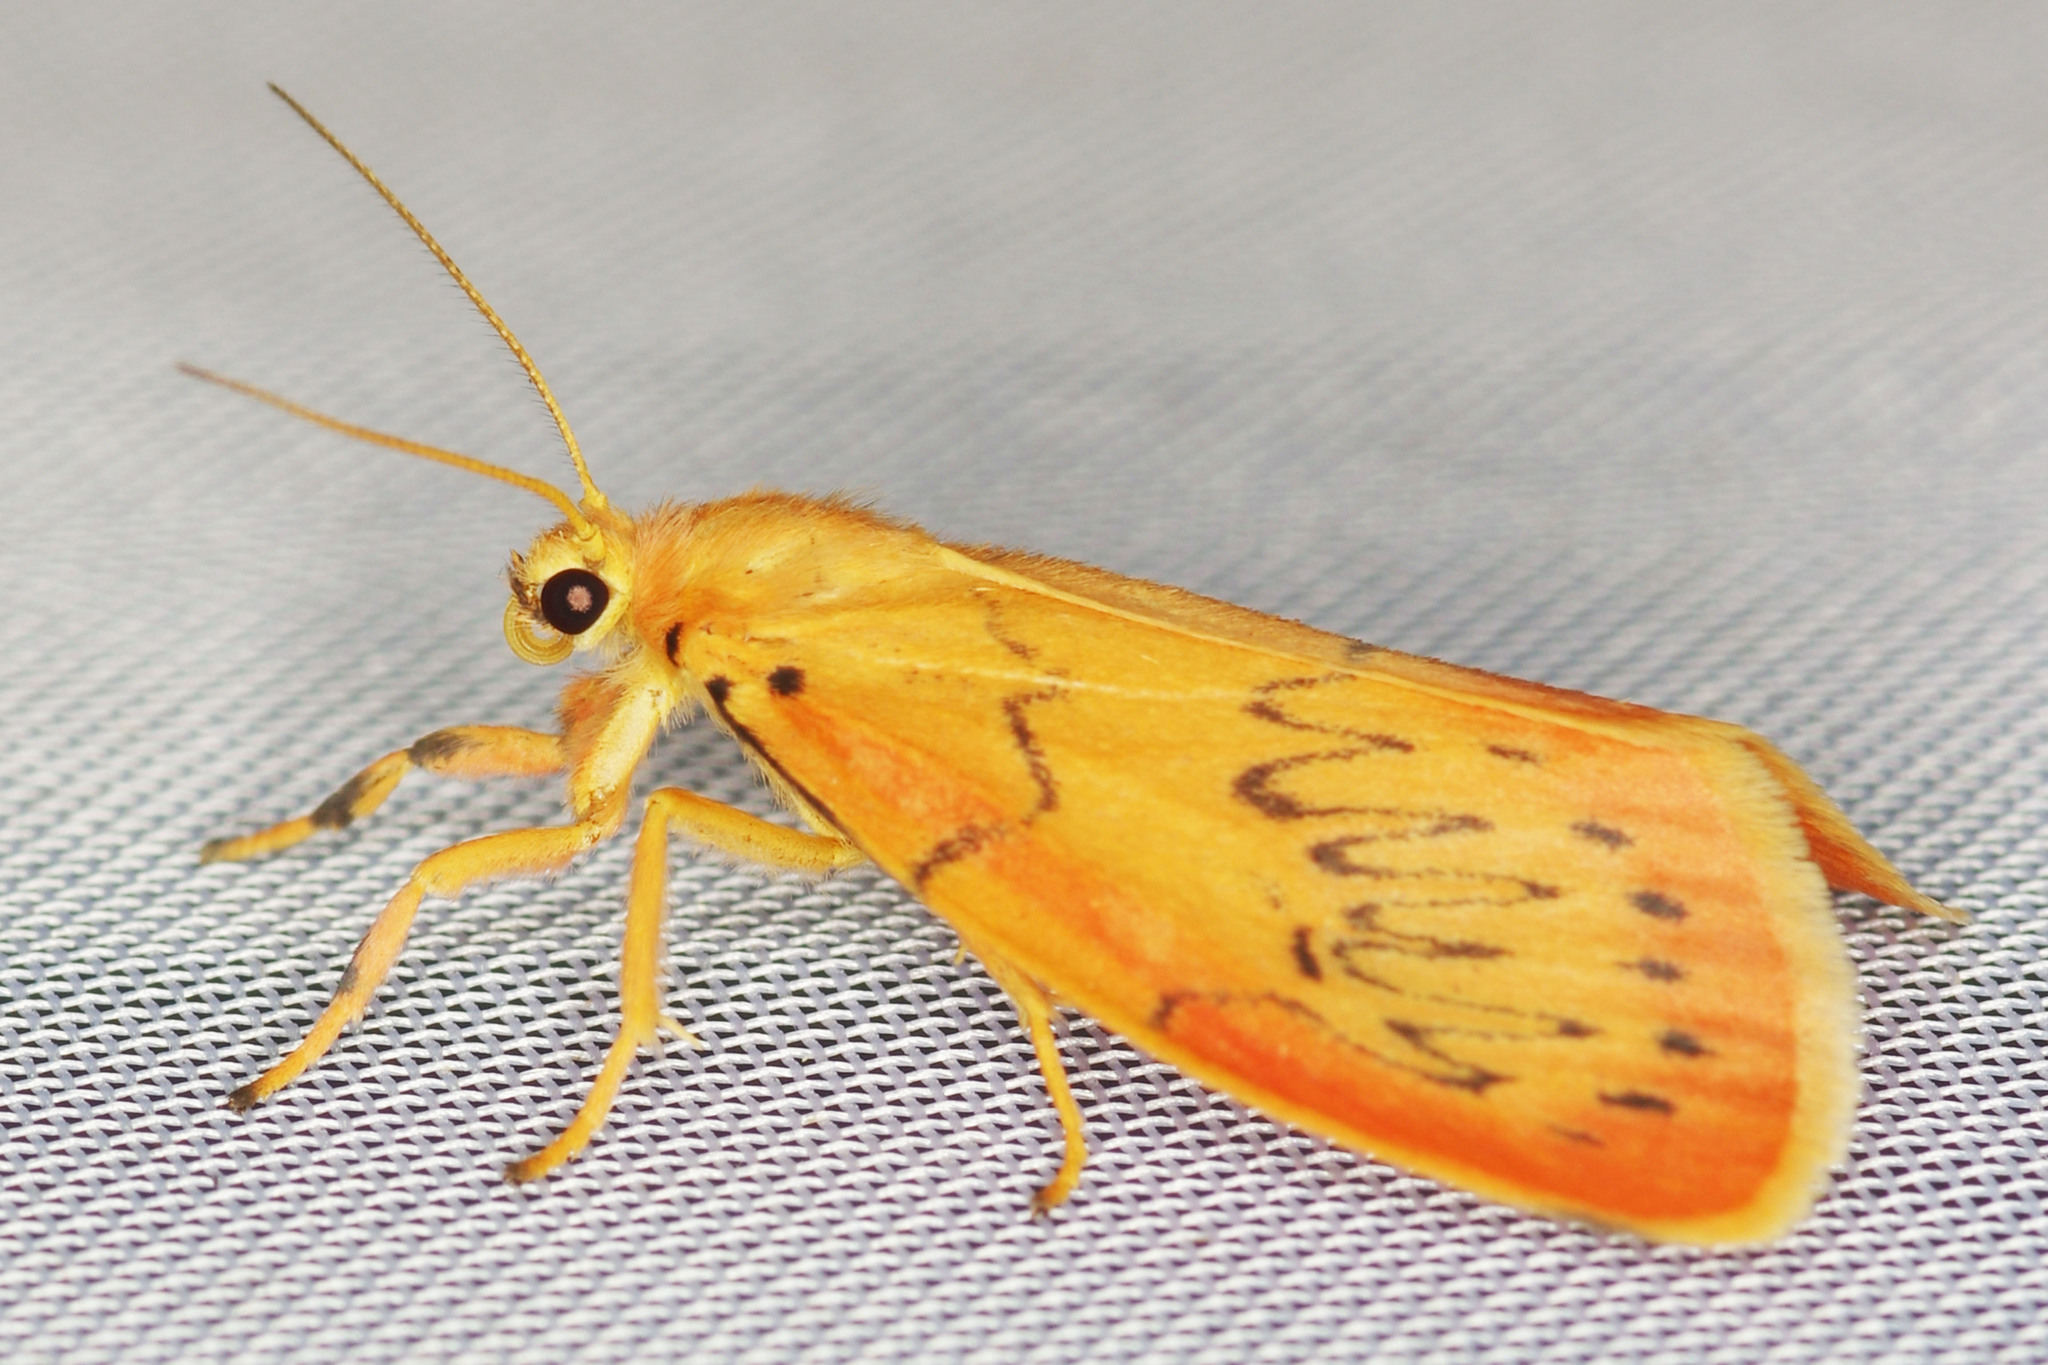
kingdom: Animalia
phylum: Arthropoda
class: Insecta
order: Lepidoptera
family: Erebidae
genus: Miltochrista
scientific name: Miltochrista miniata
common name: Rosy footman
